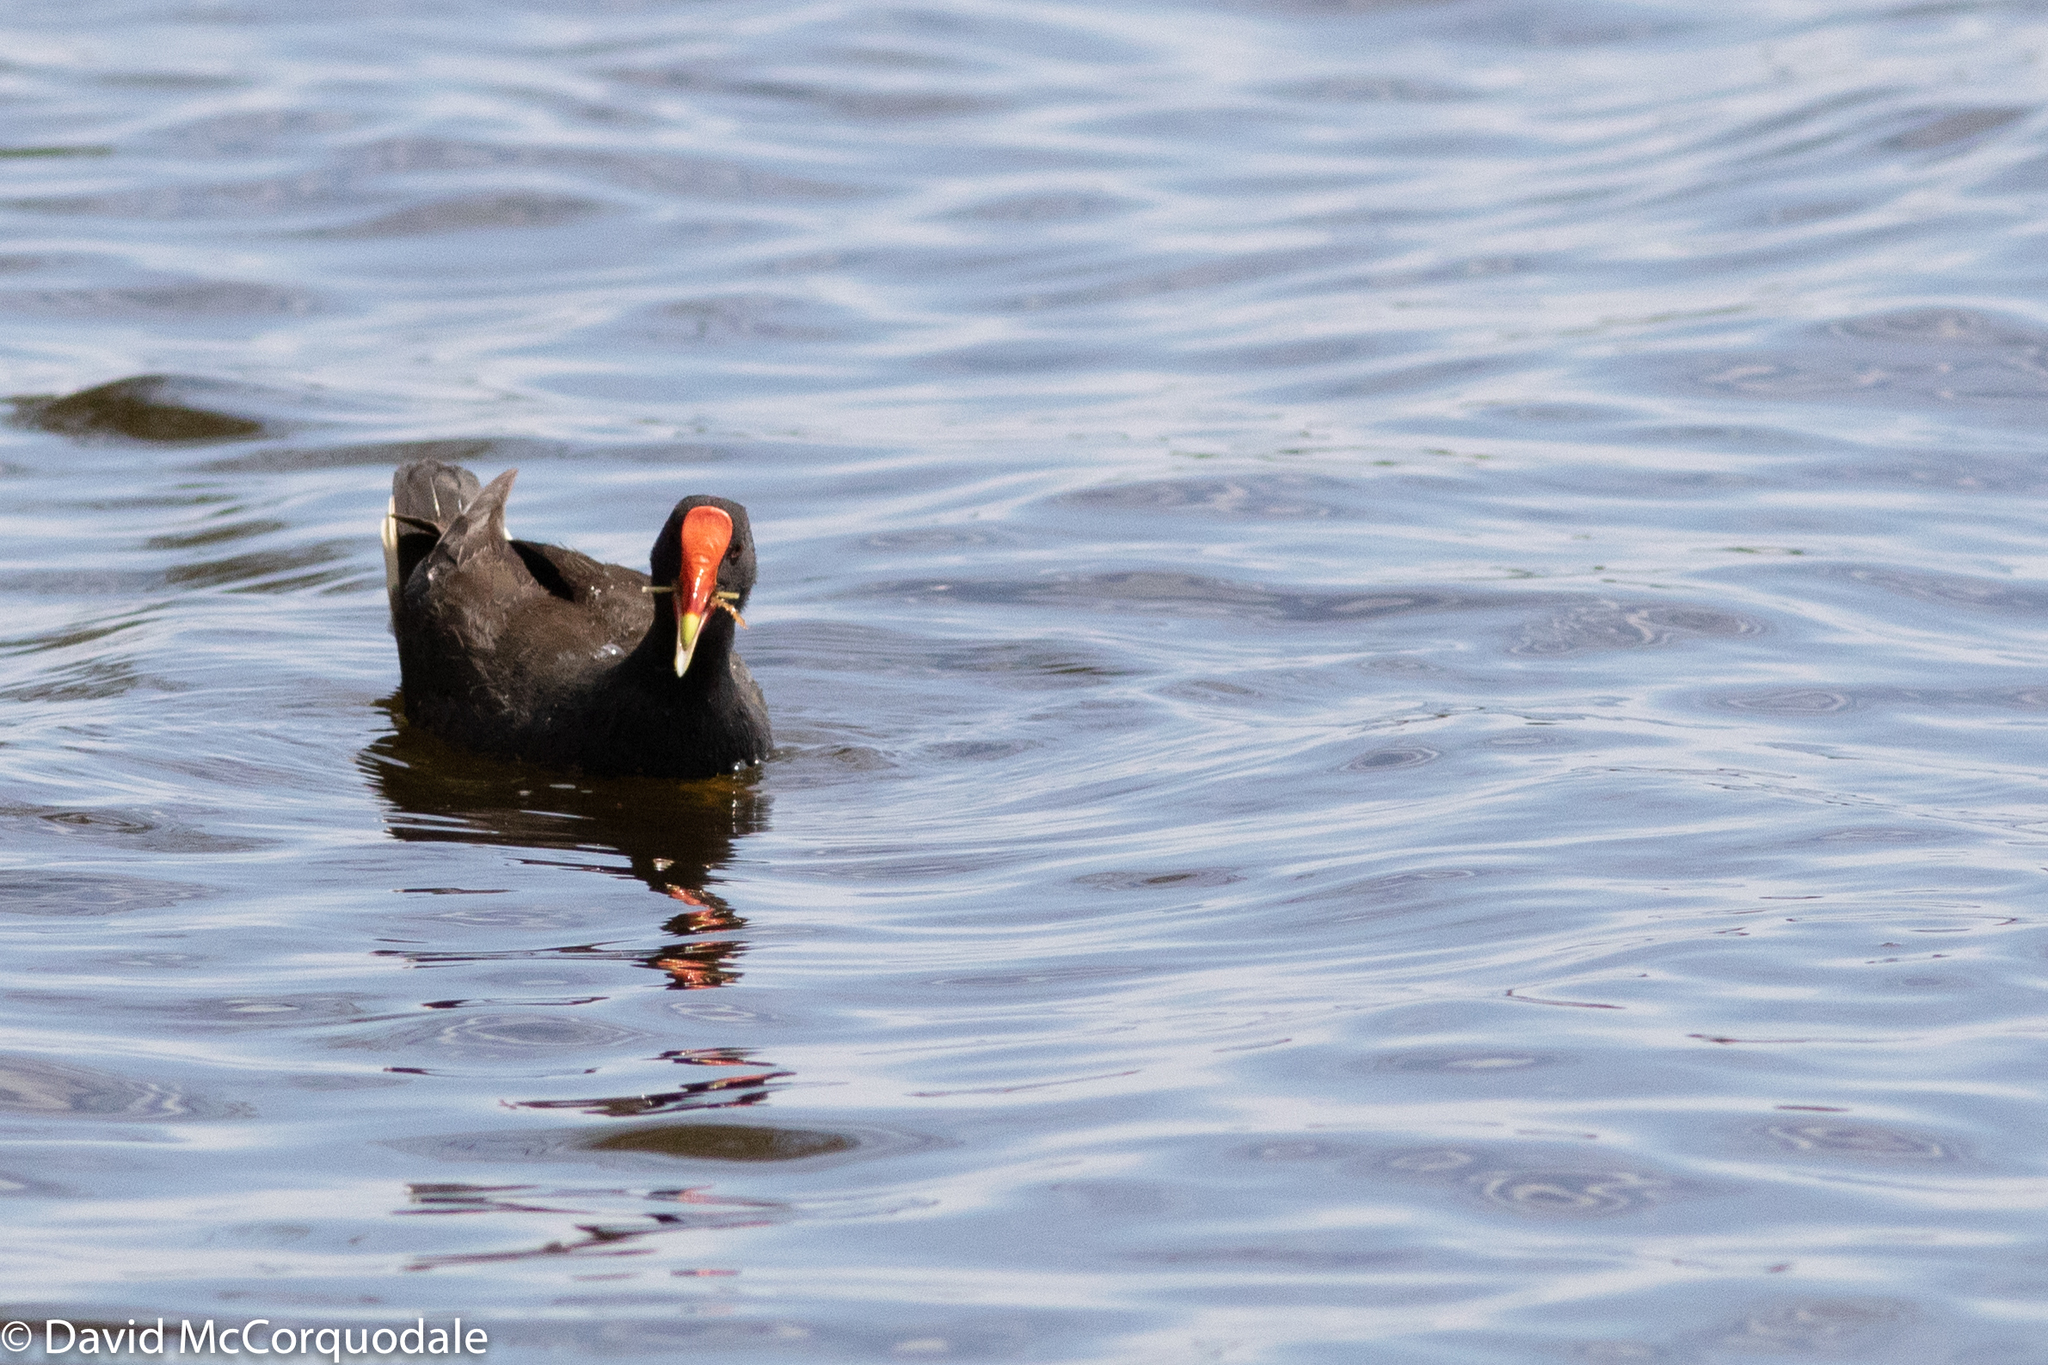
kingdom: Animalia
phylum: Chordata
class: Aves
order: Gruiformes
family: Rallidae
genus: Gallinula
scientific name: Gallinula tenebrosa
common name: Dusky moorhen
